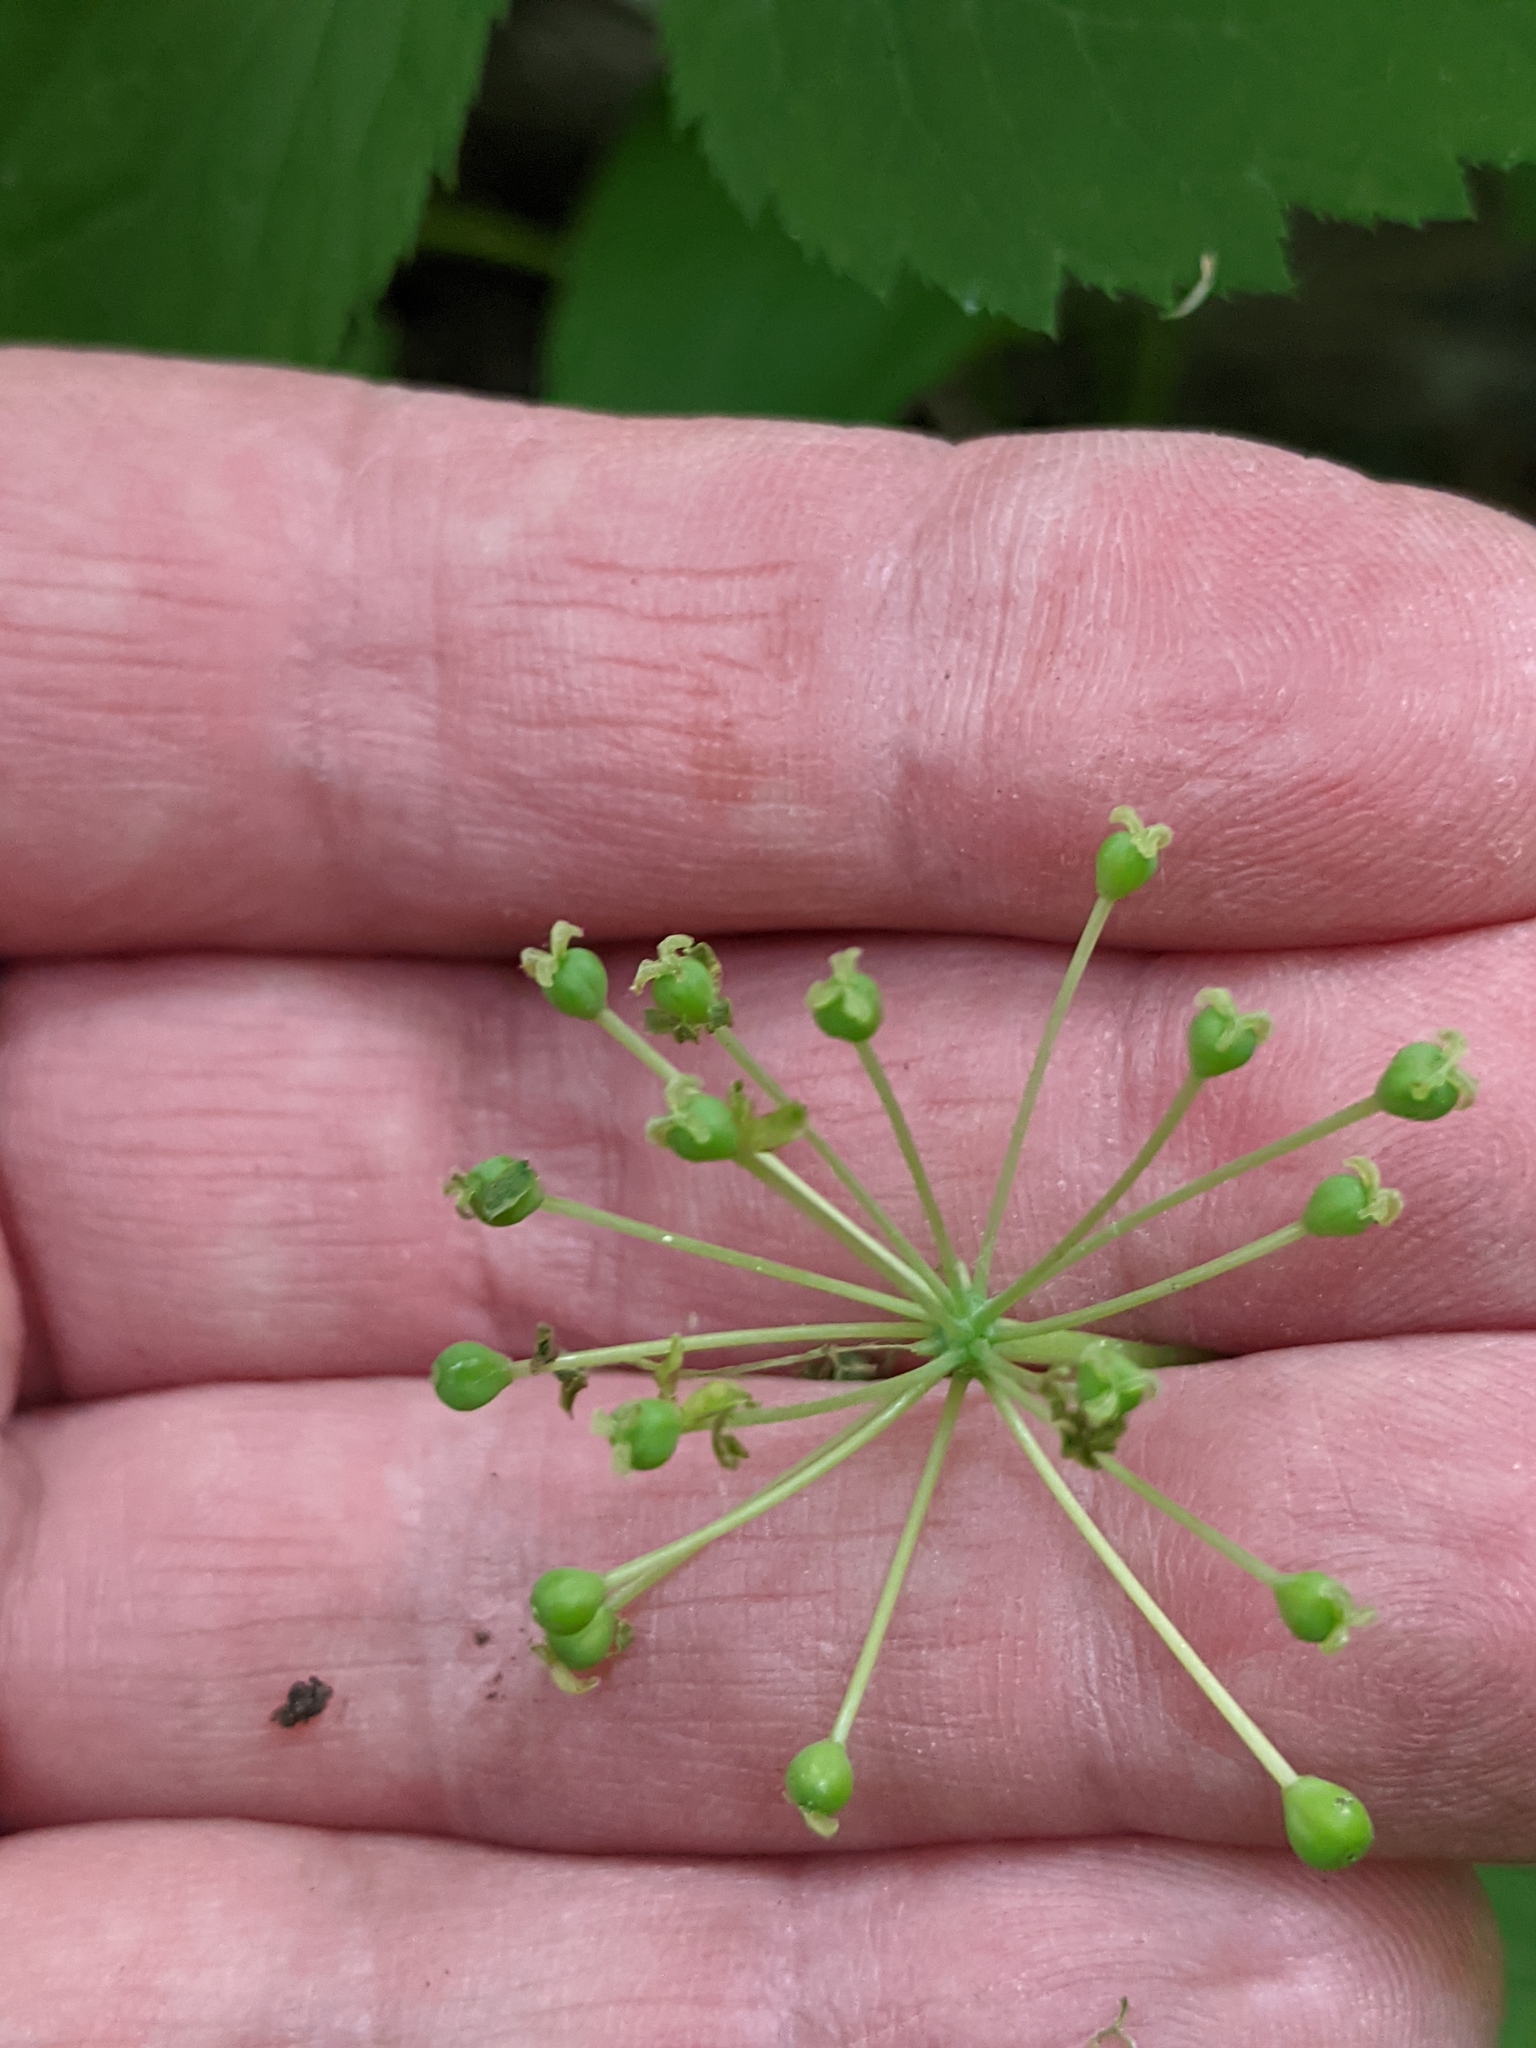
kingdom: Plantae
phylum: Tracheophyta
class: Liliopsida
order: Liliales
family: Smilacaceae
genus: Smilax
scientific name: Smilax illinoensis
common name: Illinois carrionflower
